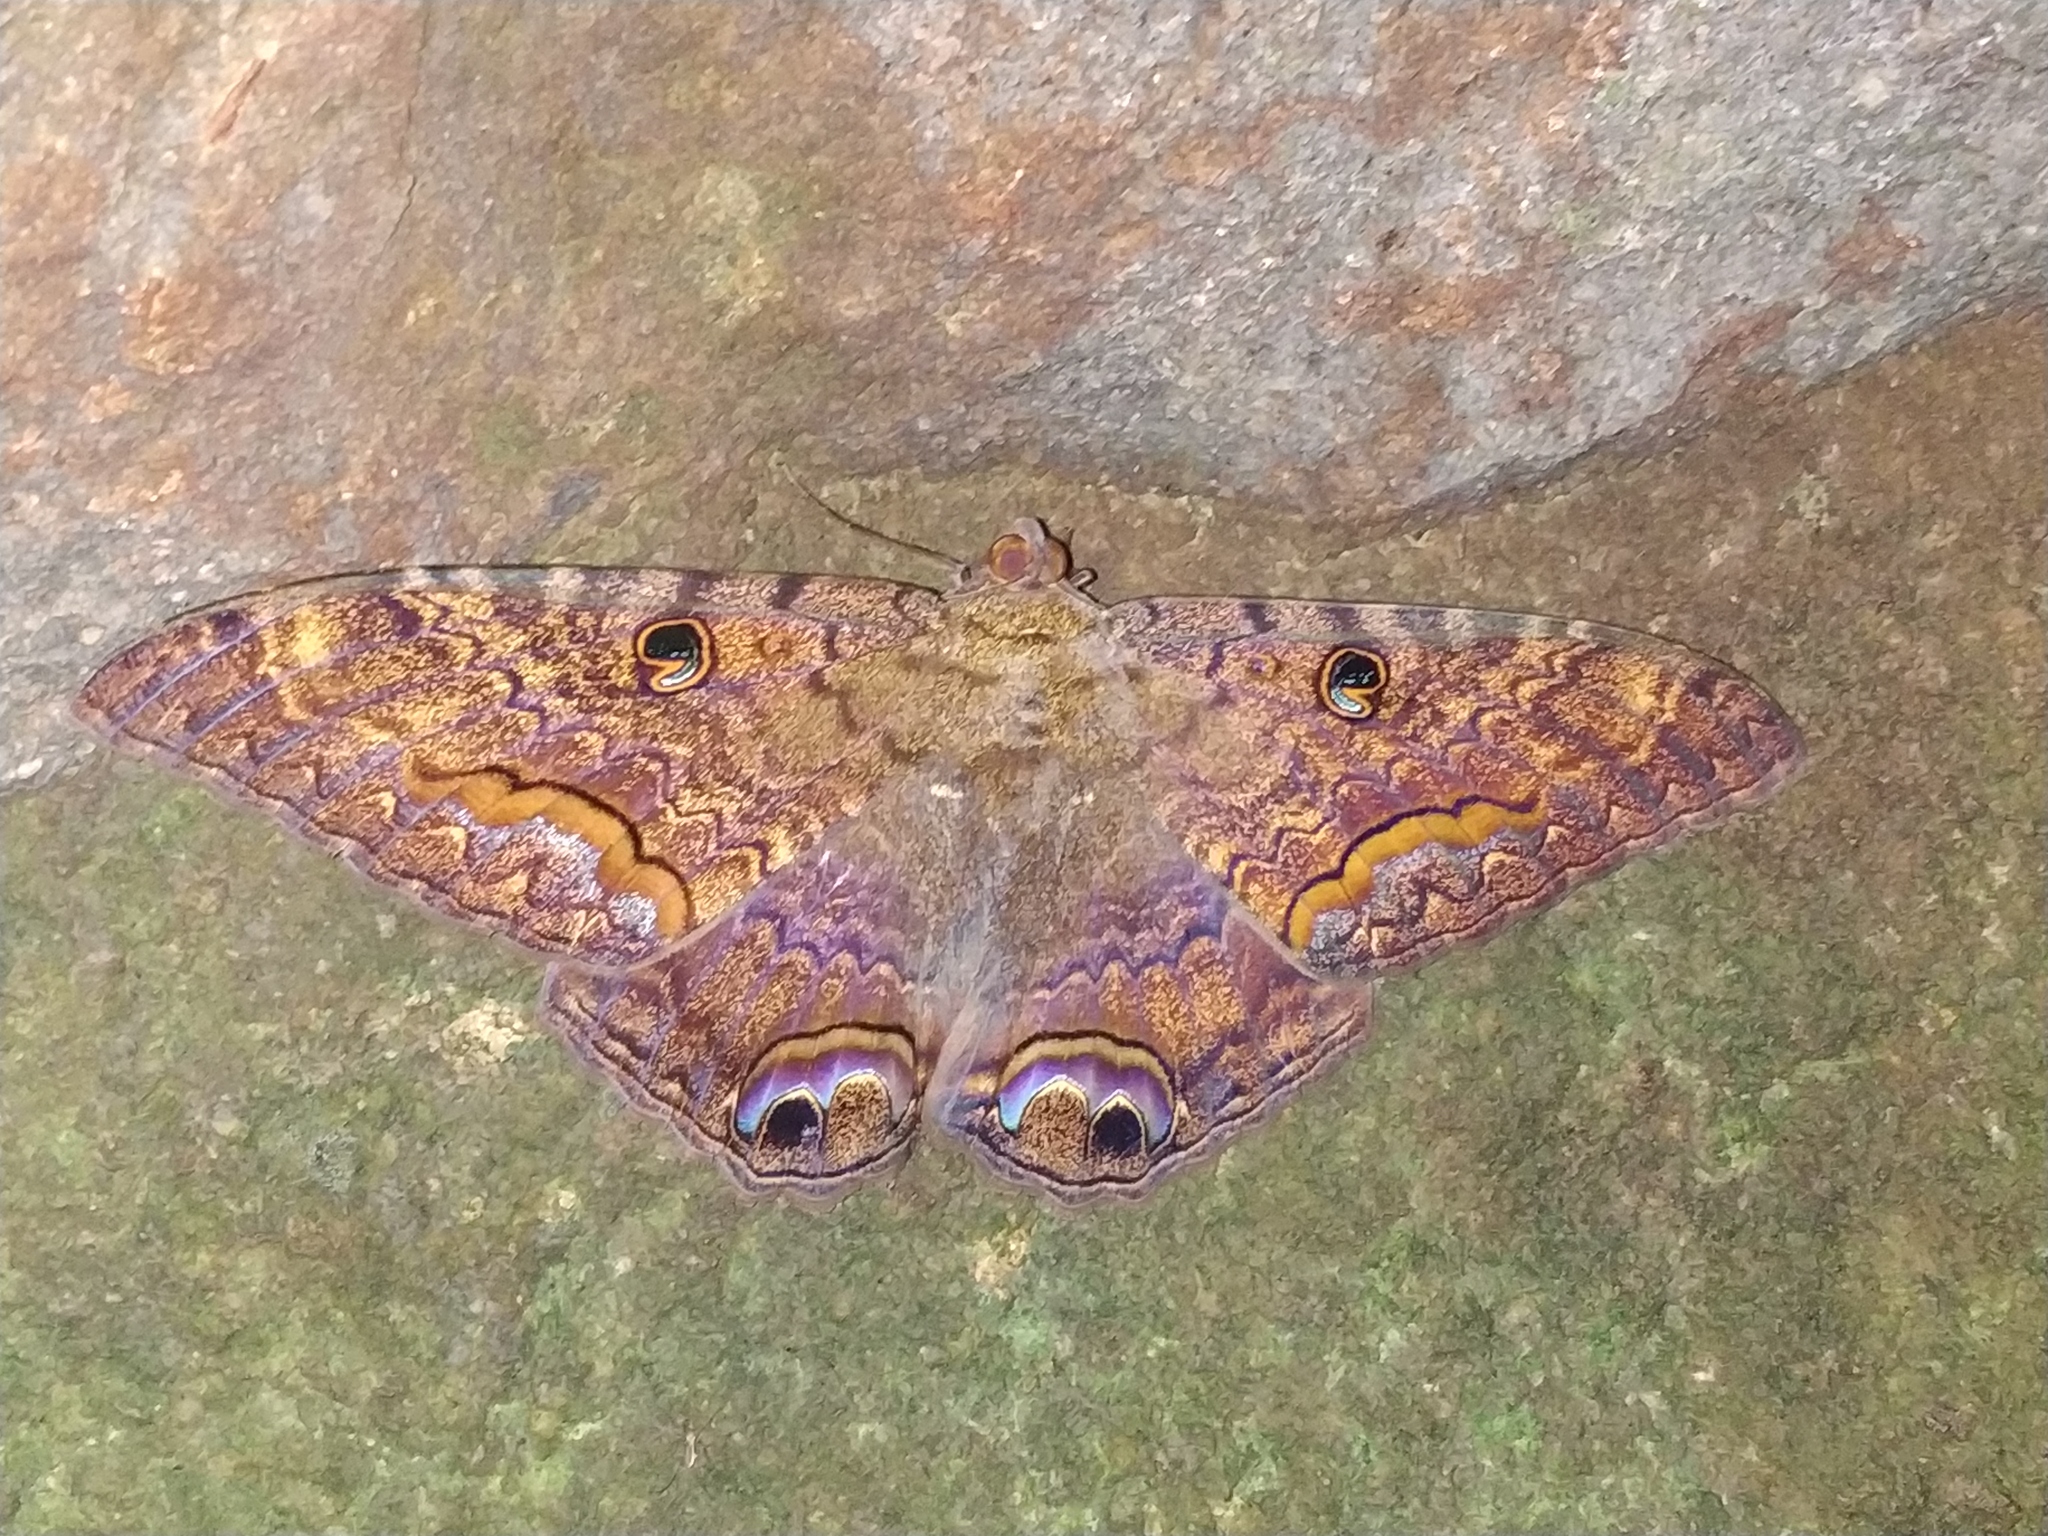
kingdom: Animalia
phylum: Arthropoda
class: Insecta
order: Lepidoptera
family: Erebidae
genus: Ascalapha
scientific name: Ascalapha odorata
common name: Black witch
